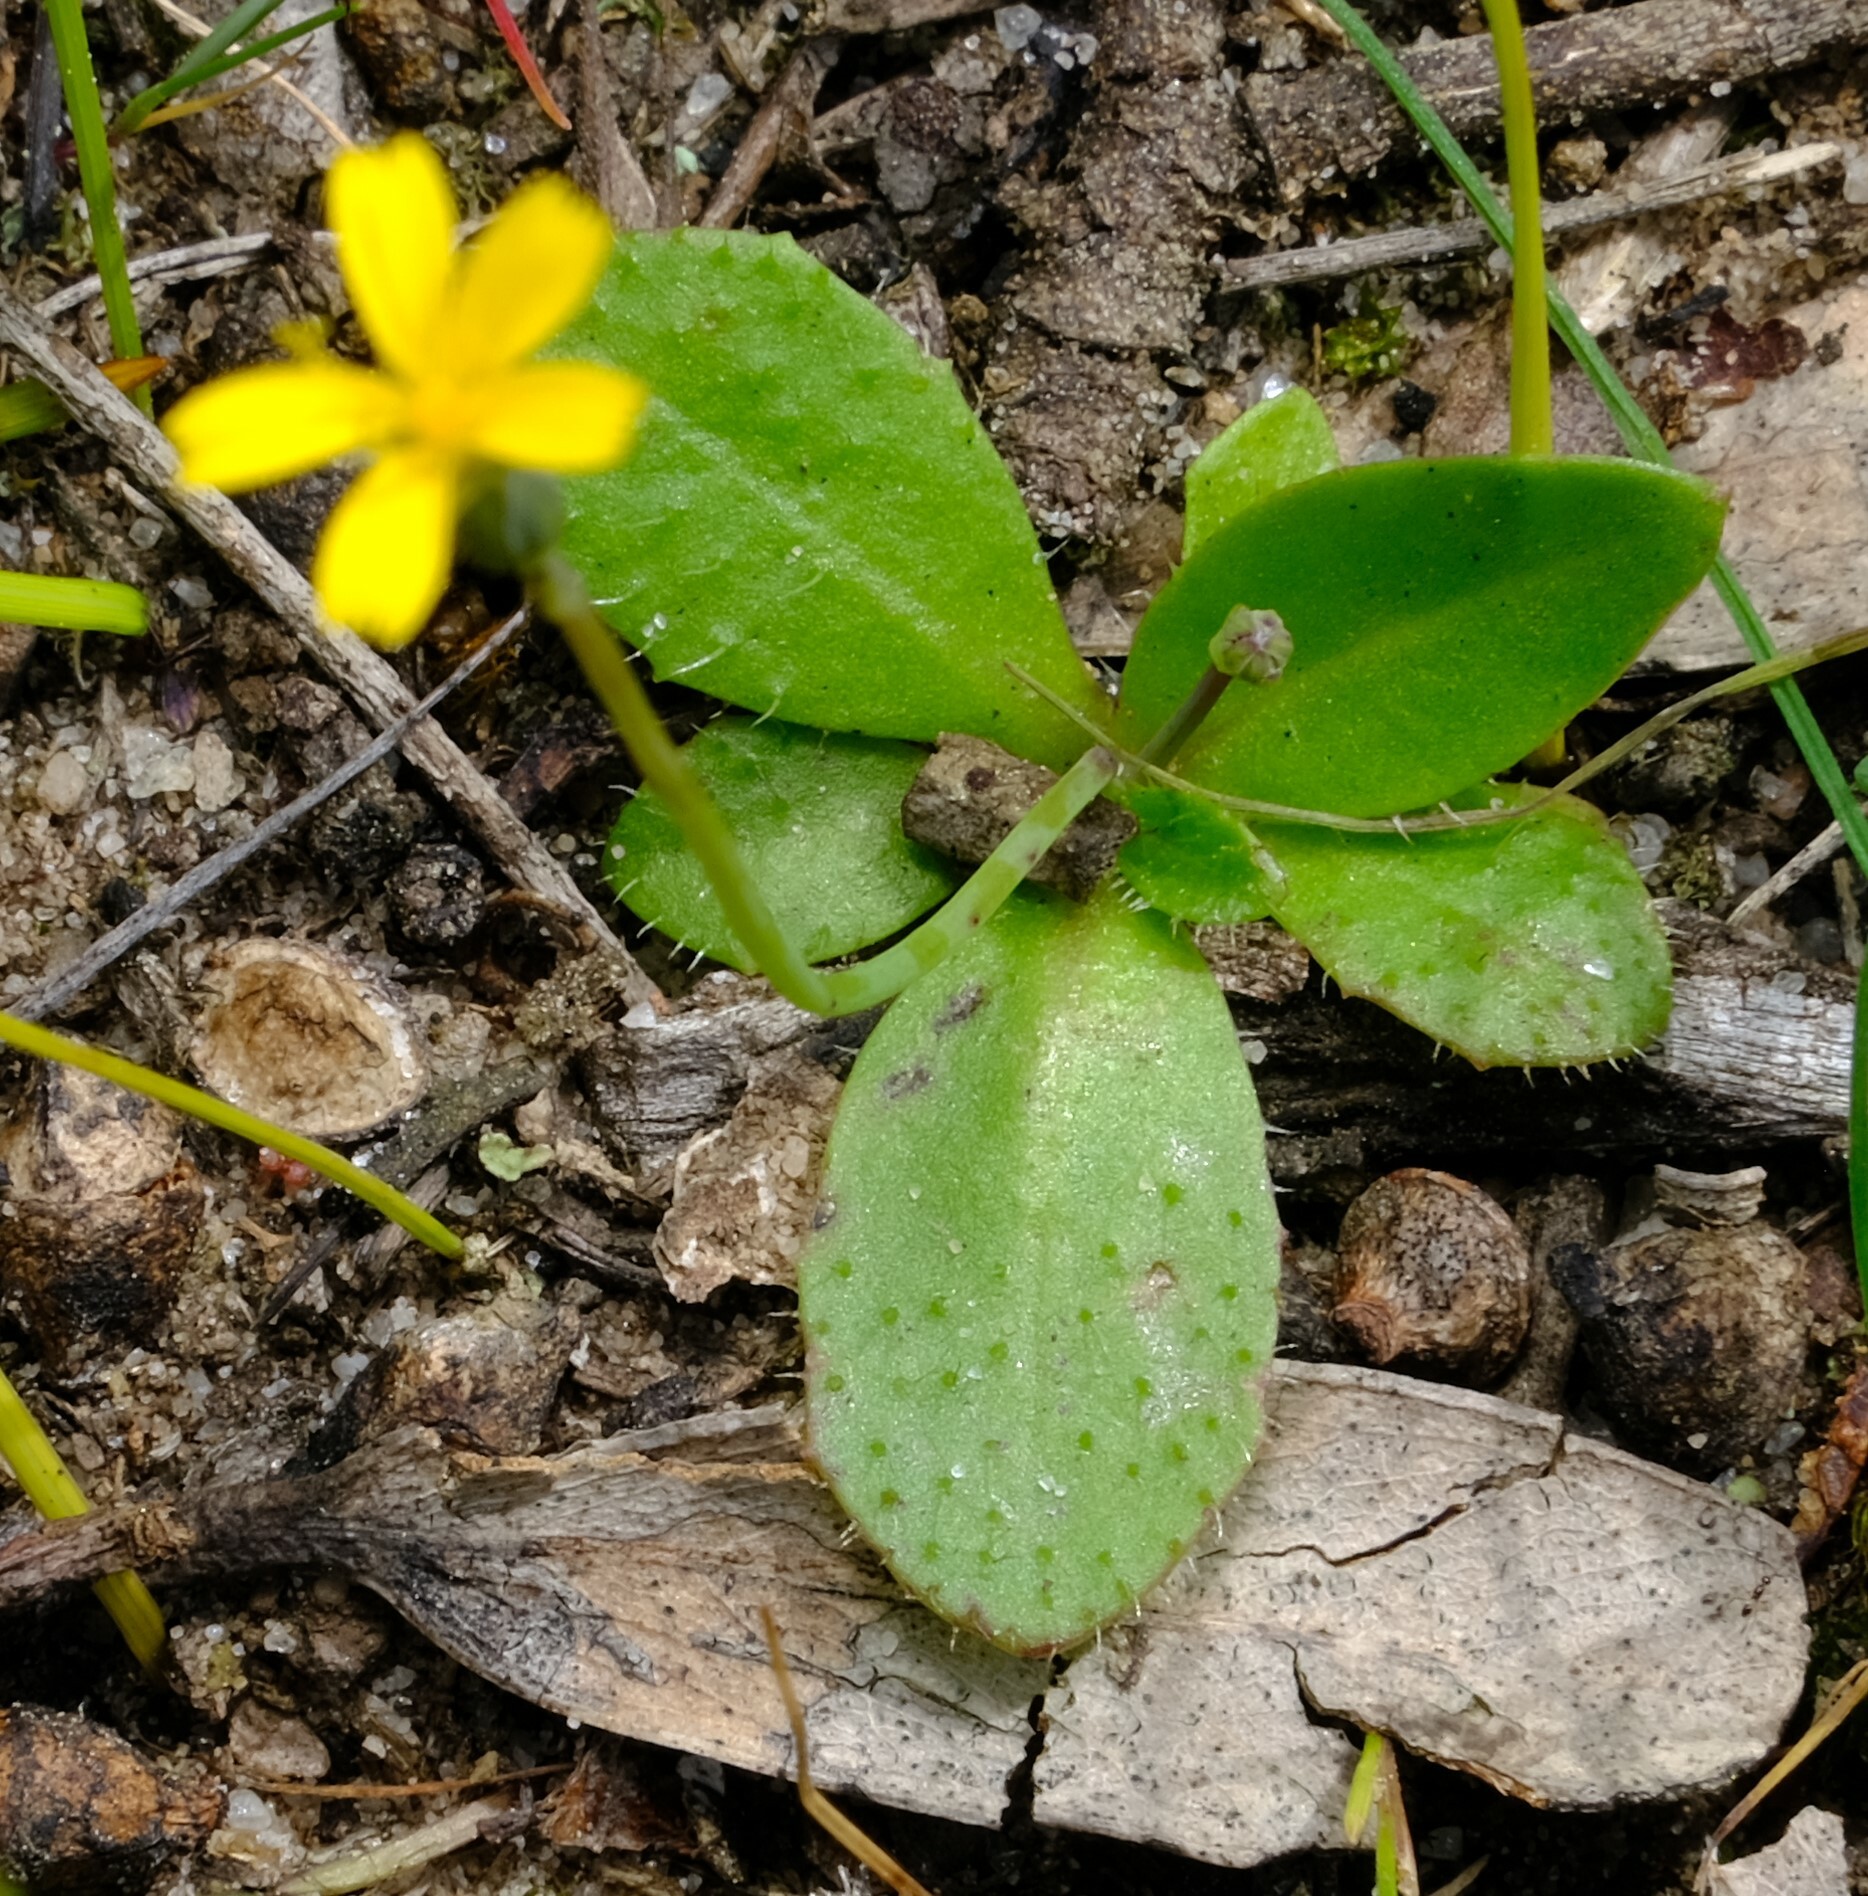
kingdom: Plantae
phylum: Tracheophyta
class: Magnoliopsida
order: Asterales
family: Asteraceae
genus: Hypochaeris
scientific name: Hypochaeris glabra
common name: Smooth catsear
